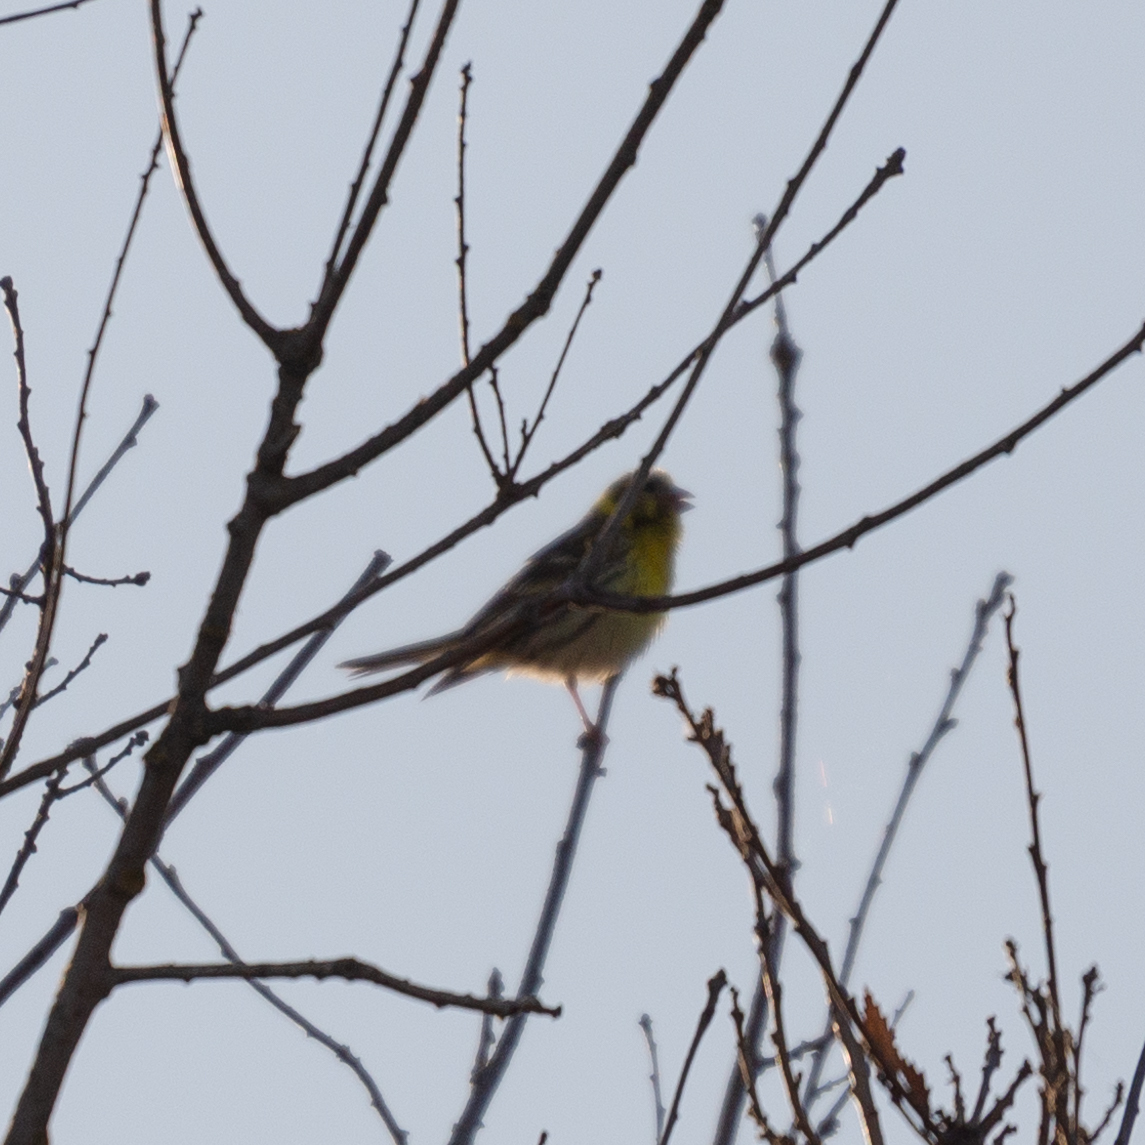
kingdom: Animalia
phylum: Chordata
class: Aves
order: Passeriformes
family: Fringillidae
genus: Serinus
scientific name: Serinus serinus
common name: European serin
